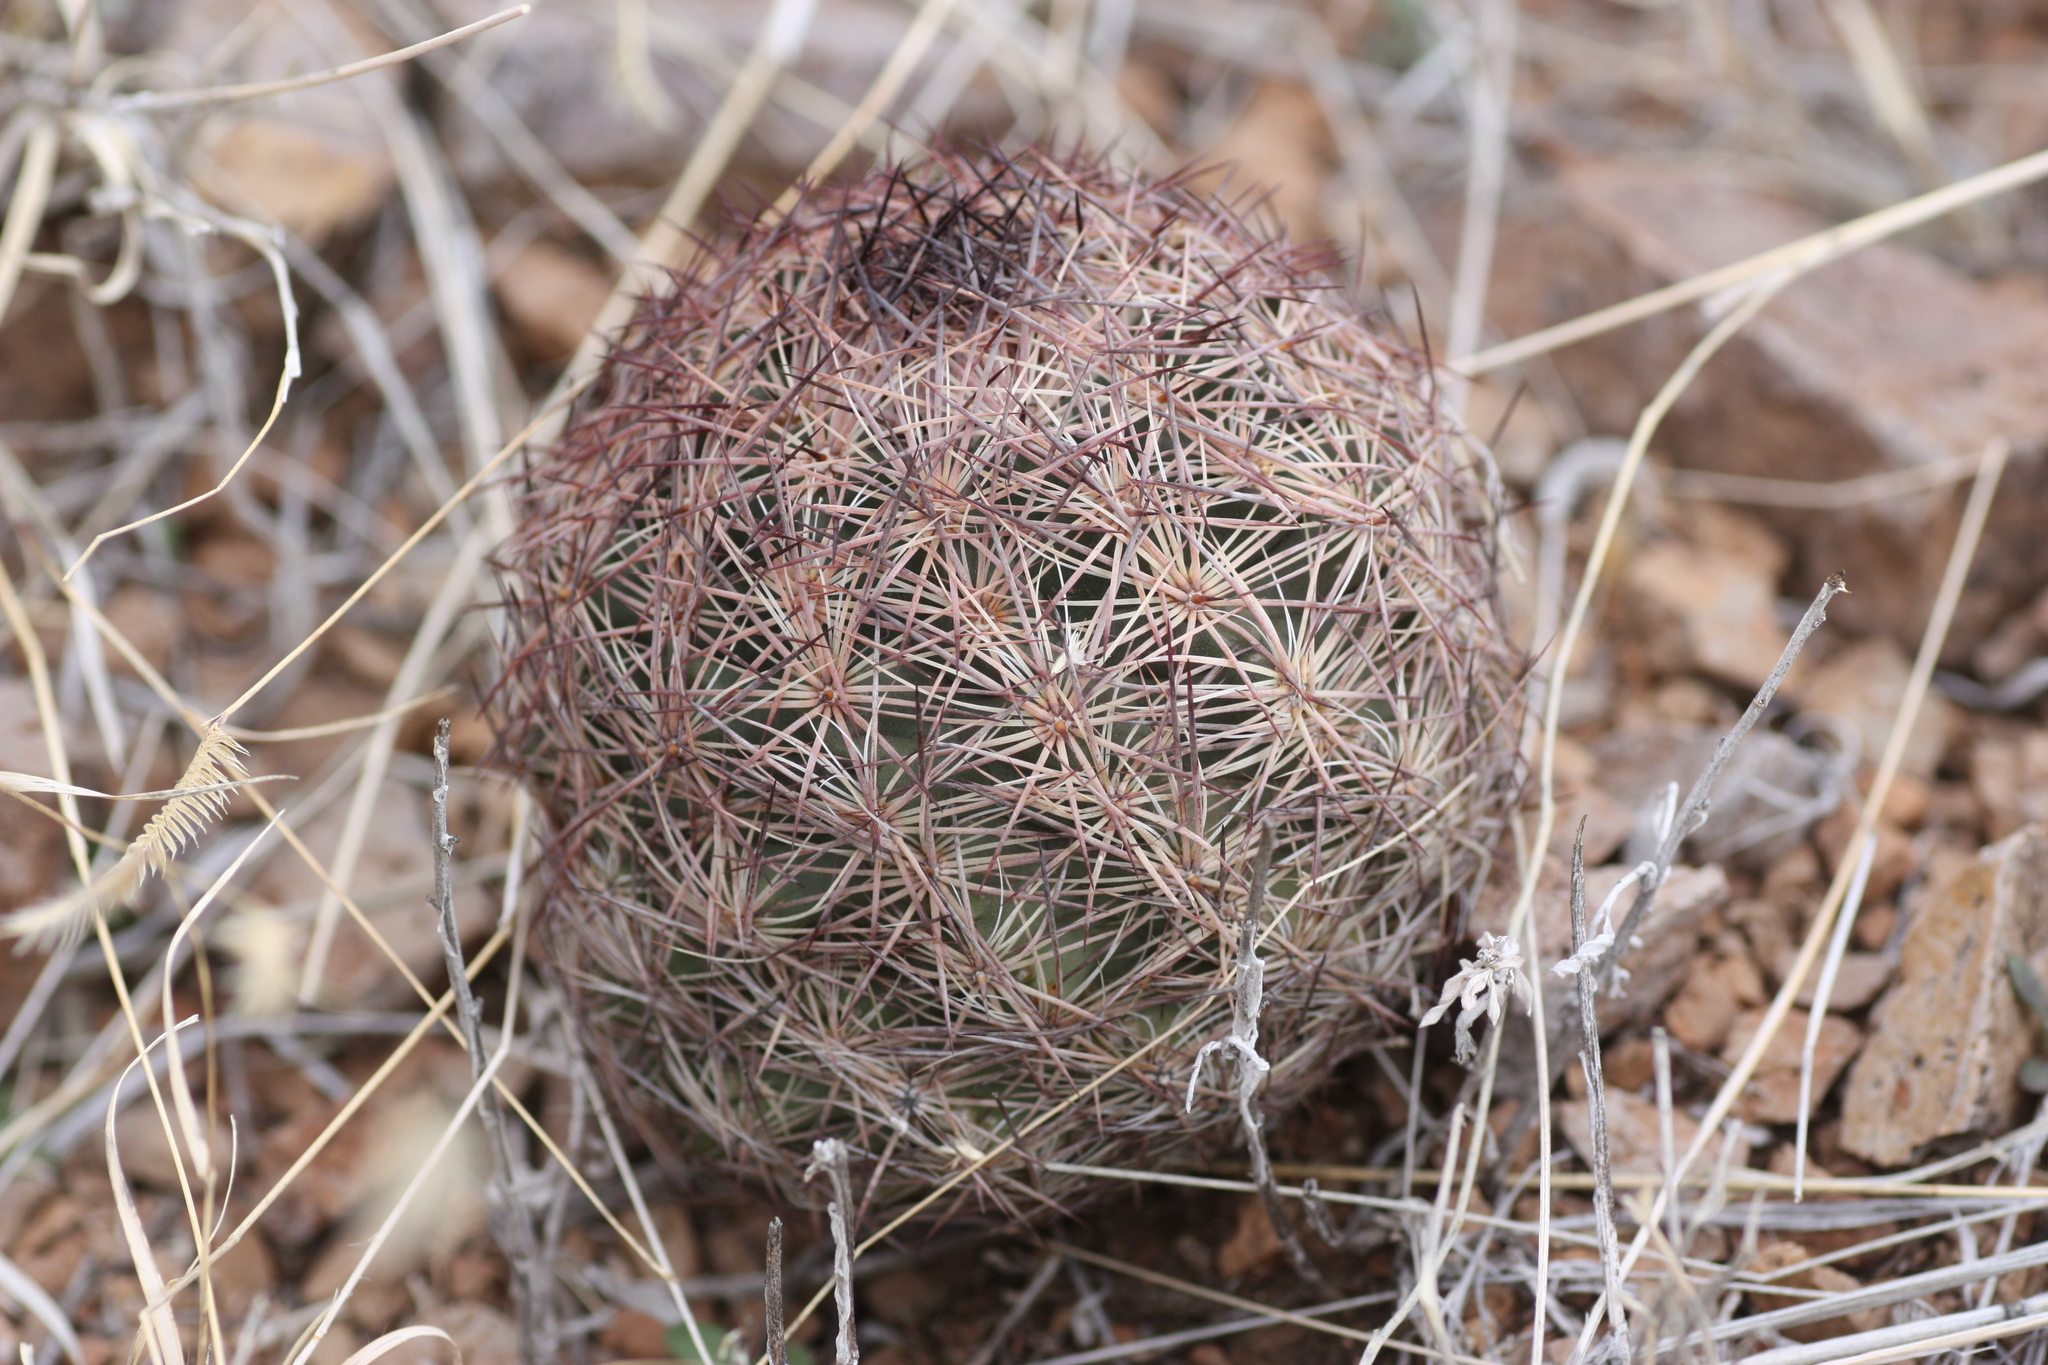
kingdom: Plantae
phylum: Tracheophyta
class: Magnoliopsida
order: Caryophyllales
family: Cactaceae
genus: Sclerocactus
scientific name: Sclerocactus intertextus
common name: White fish-hook cactus
